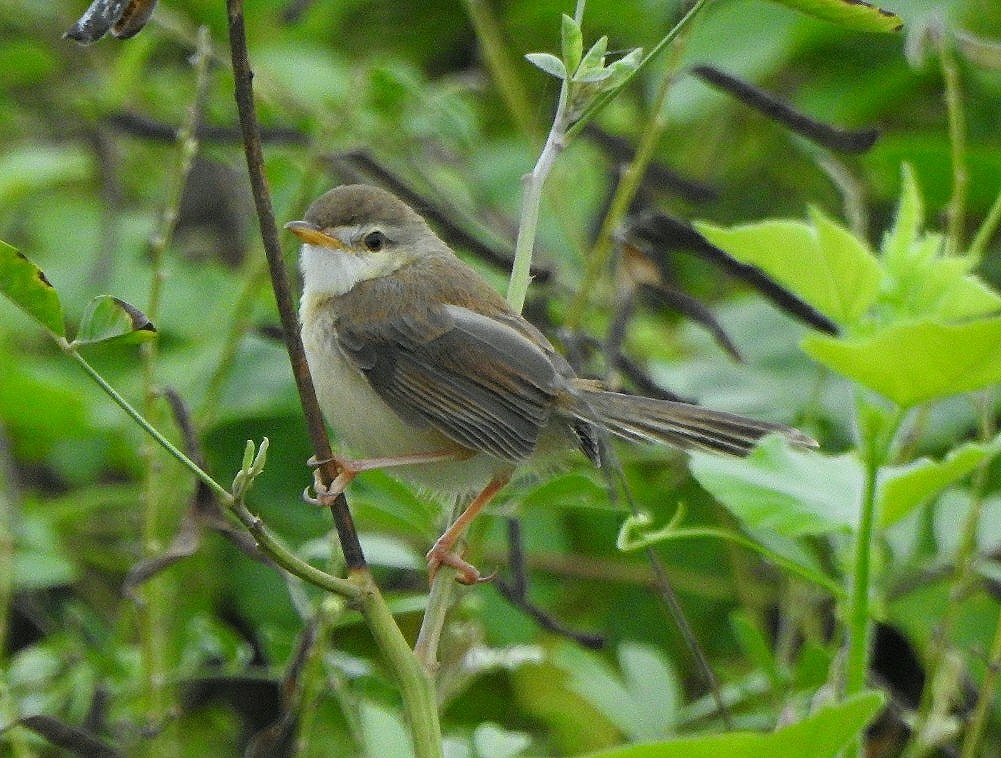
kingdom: Animalia
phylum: Chordata
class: Aves
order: Passeriformes
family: Cisticolidae
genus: Prinia
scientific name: Prinia inornata
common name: Plain prinia
